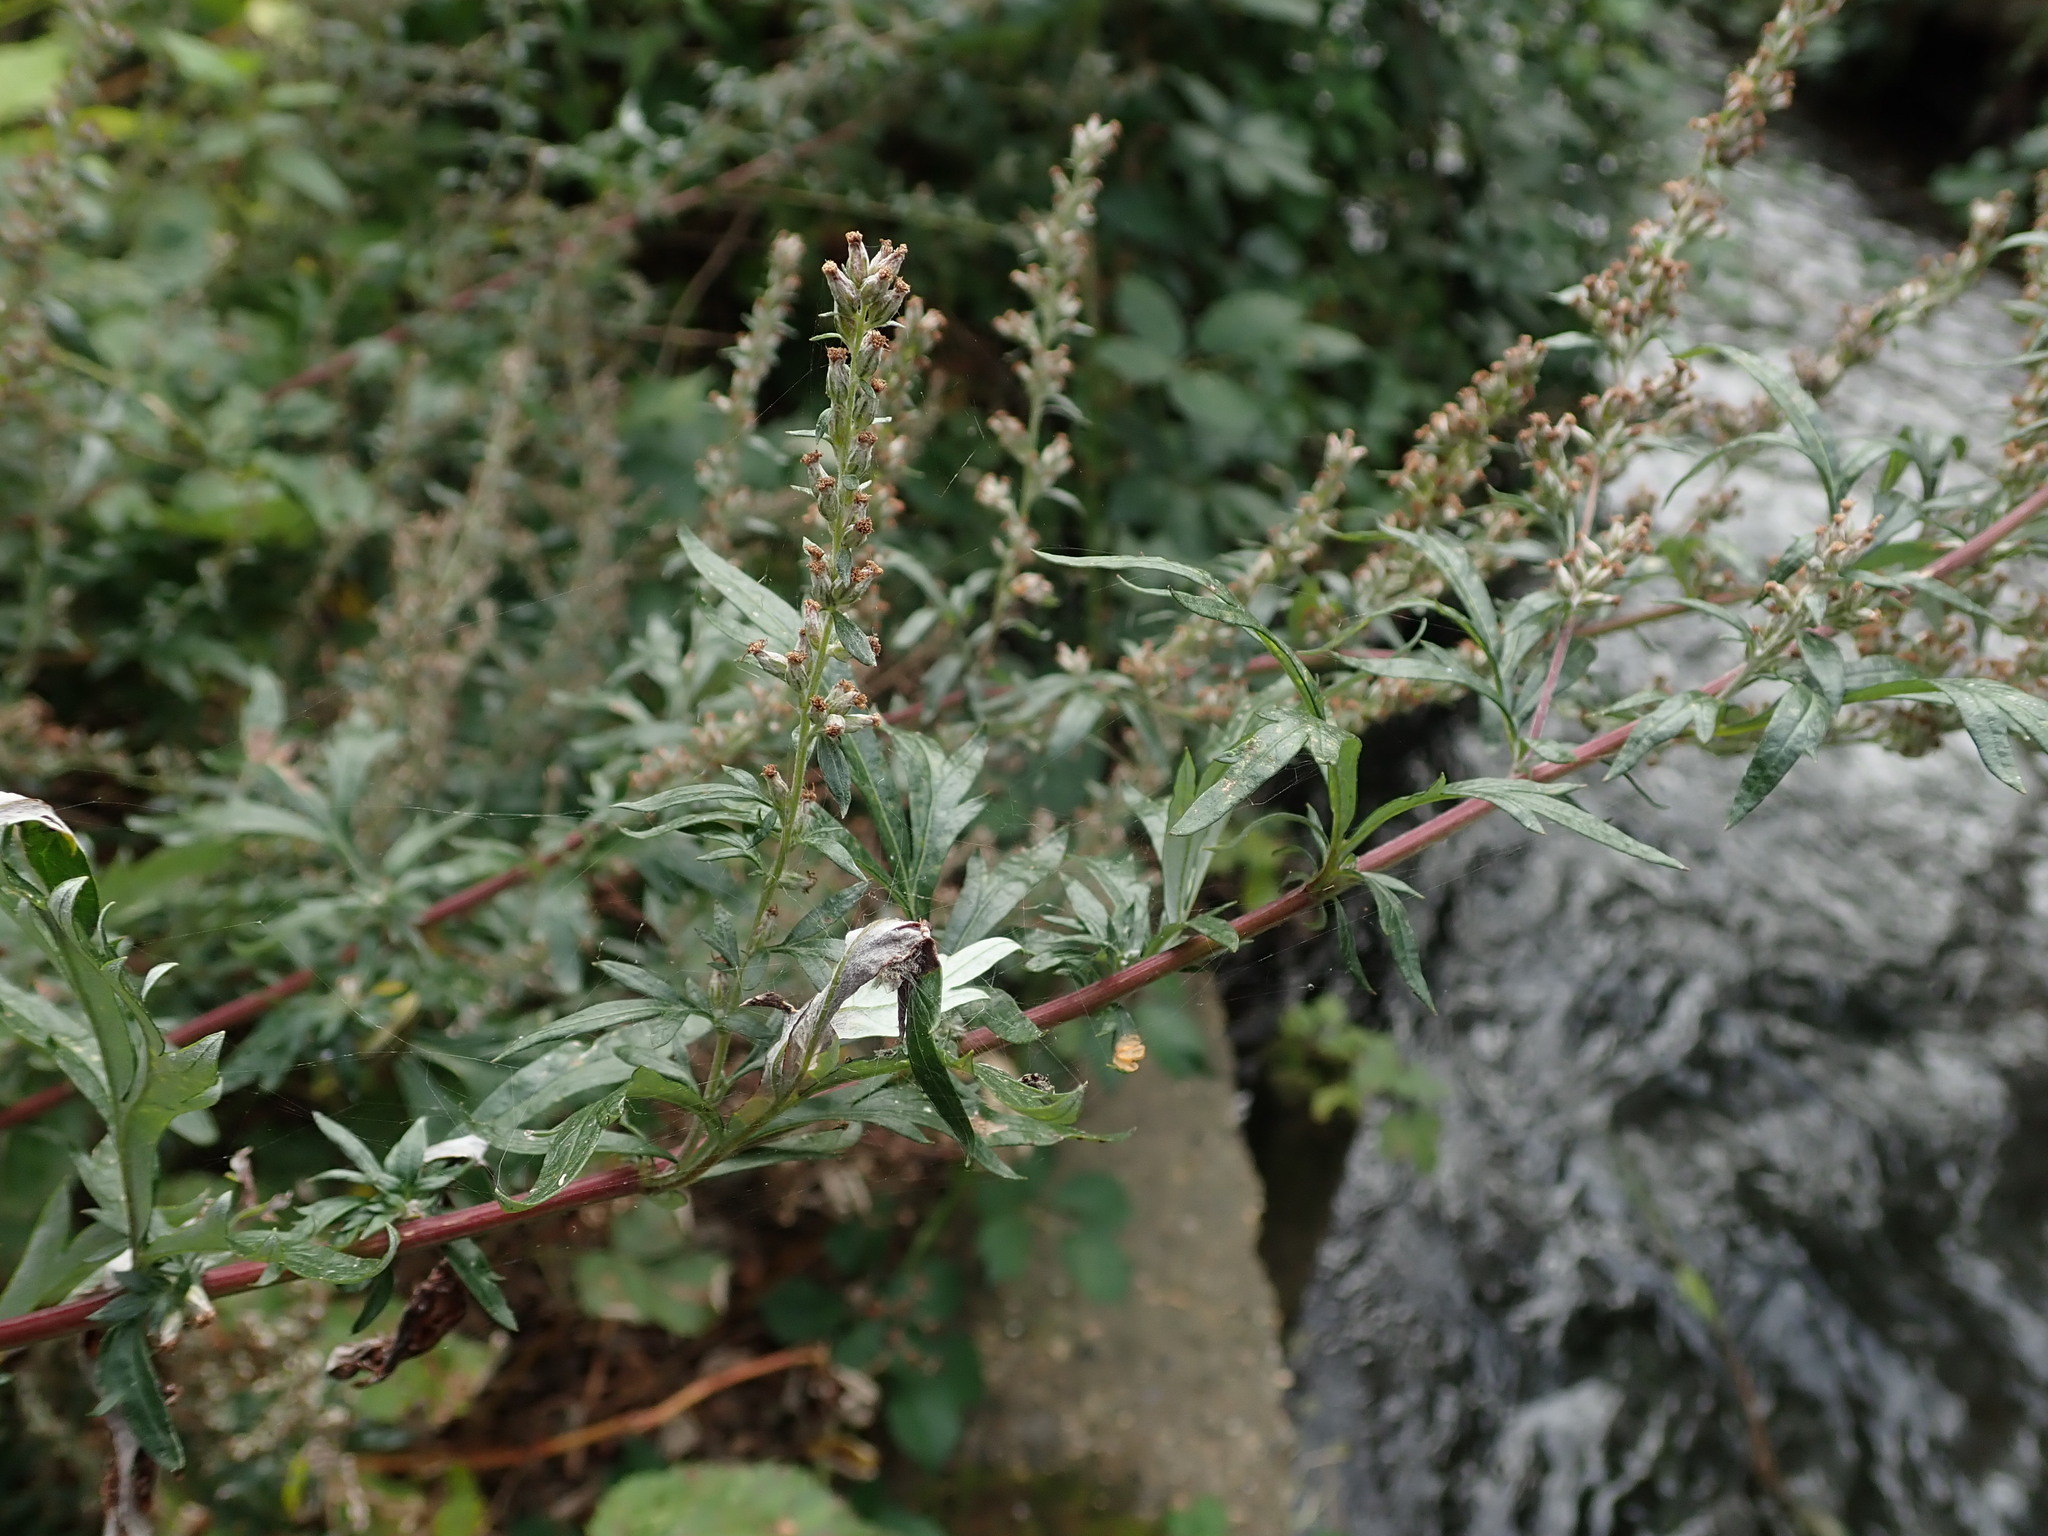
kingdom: Plantae
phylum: Tracheophyta
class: Magnoliopsida
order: Asterales
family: Asteraceae
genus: Artemisia
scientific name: Artemisia vulgaris
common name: Mugwort
